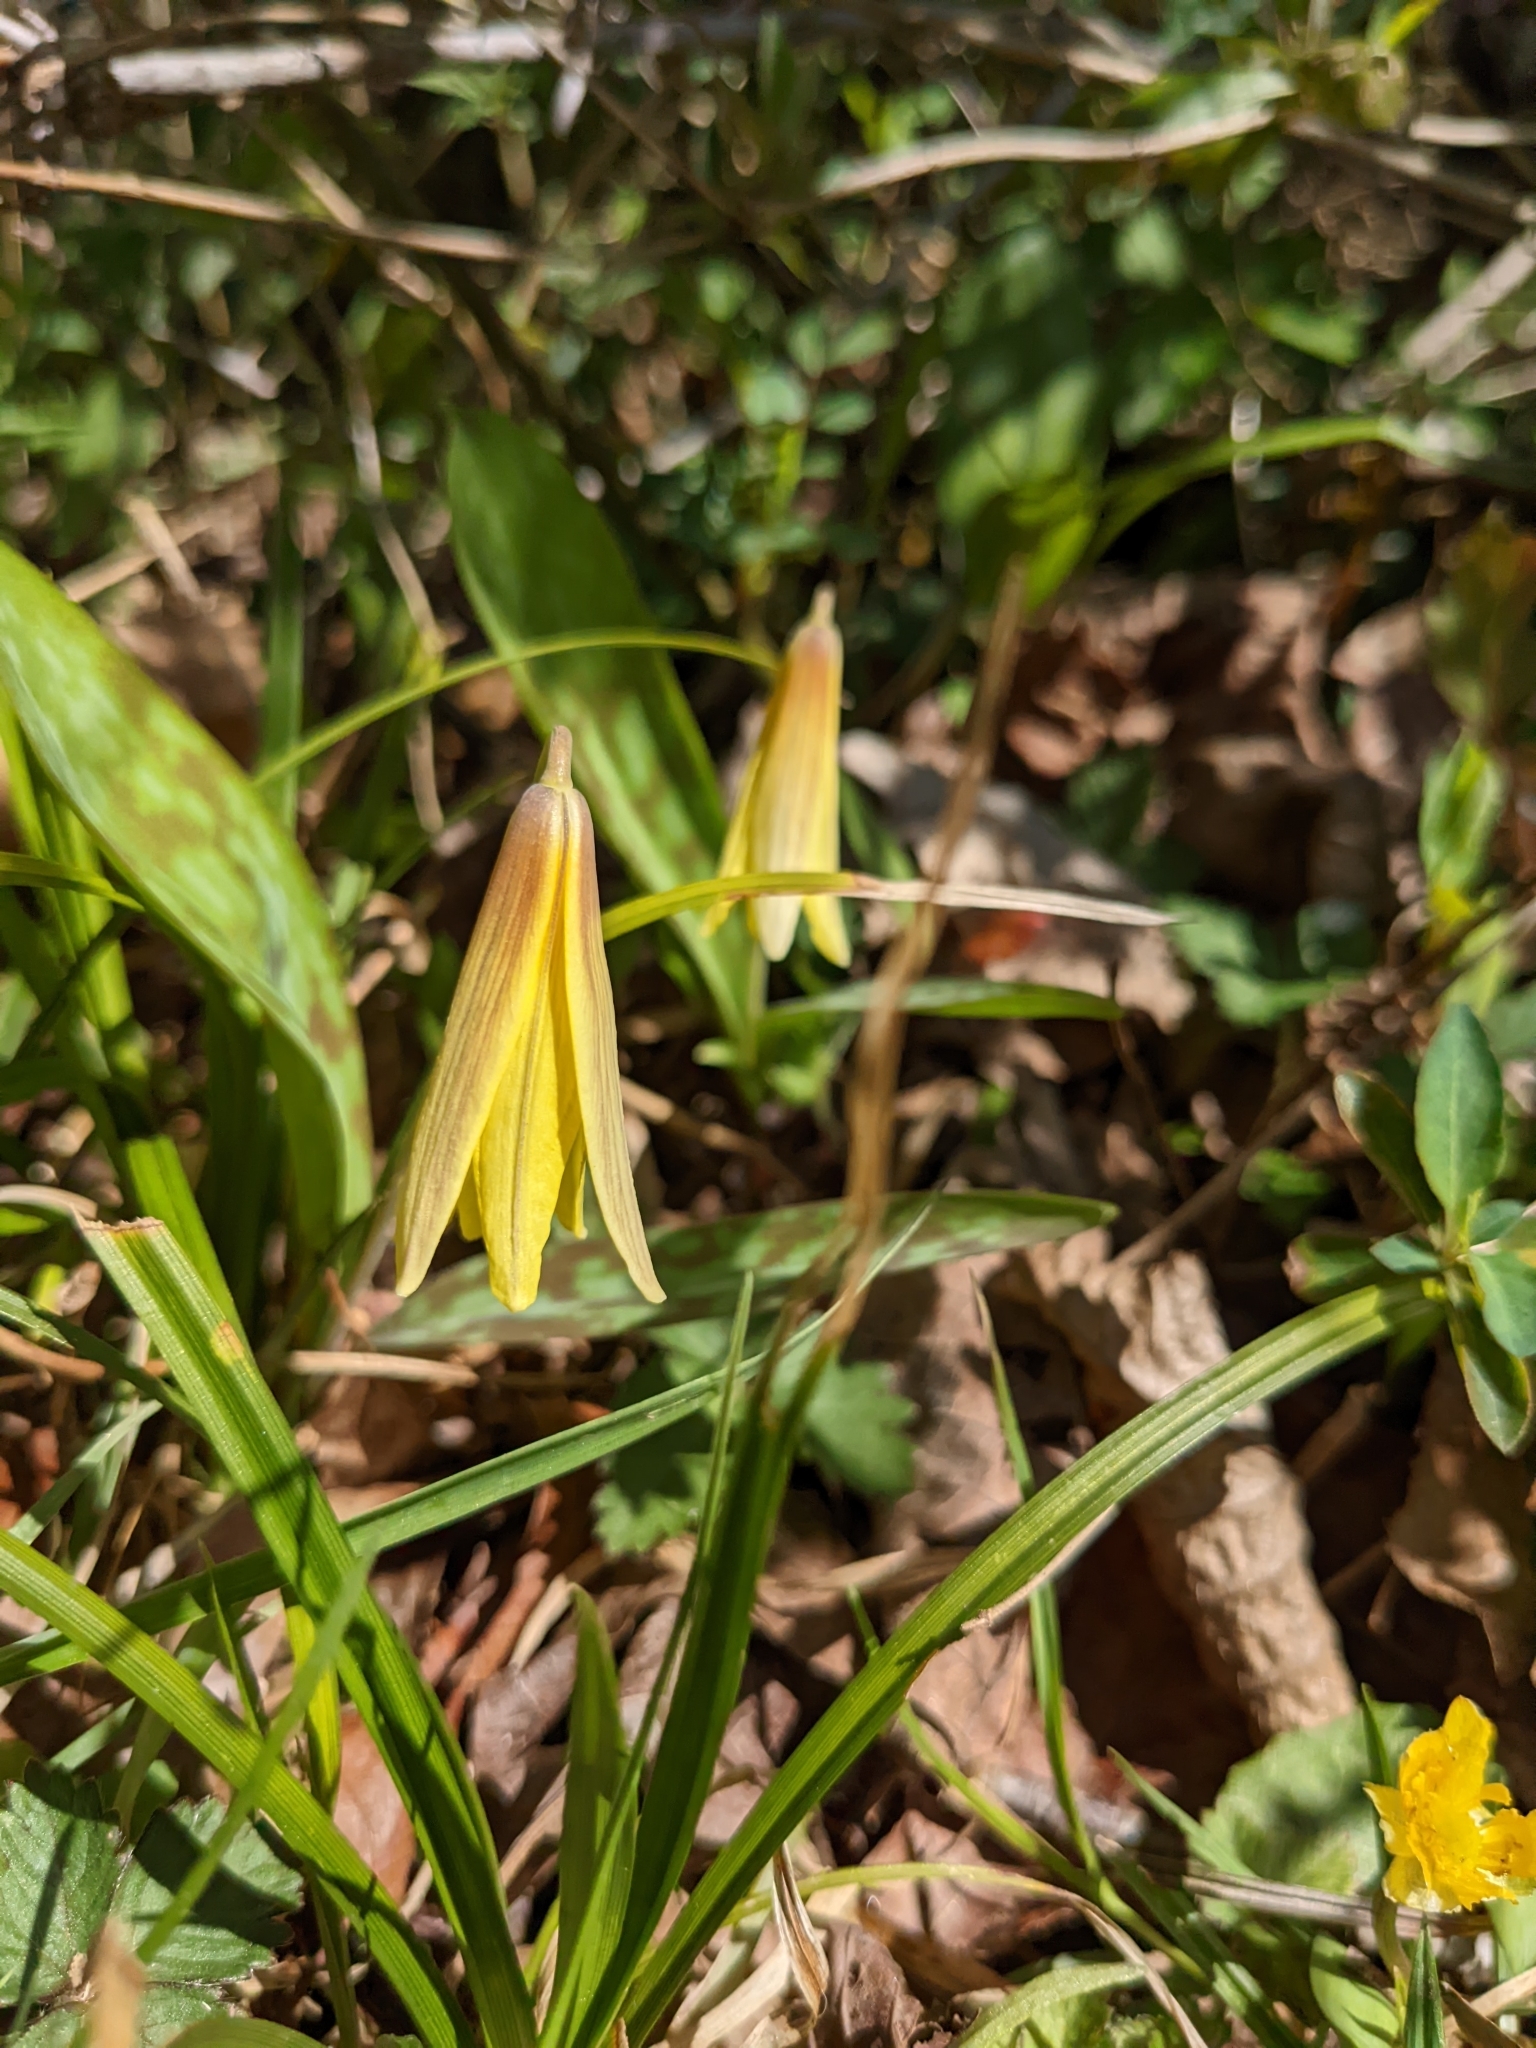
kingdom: Plantae
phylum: Tracheophyta
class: Liliopsida
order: Liliales
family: Liliaceae
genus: Erythronium
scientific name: Erythronium americanum
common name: Yellow adder's-tongue
